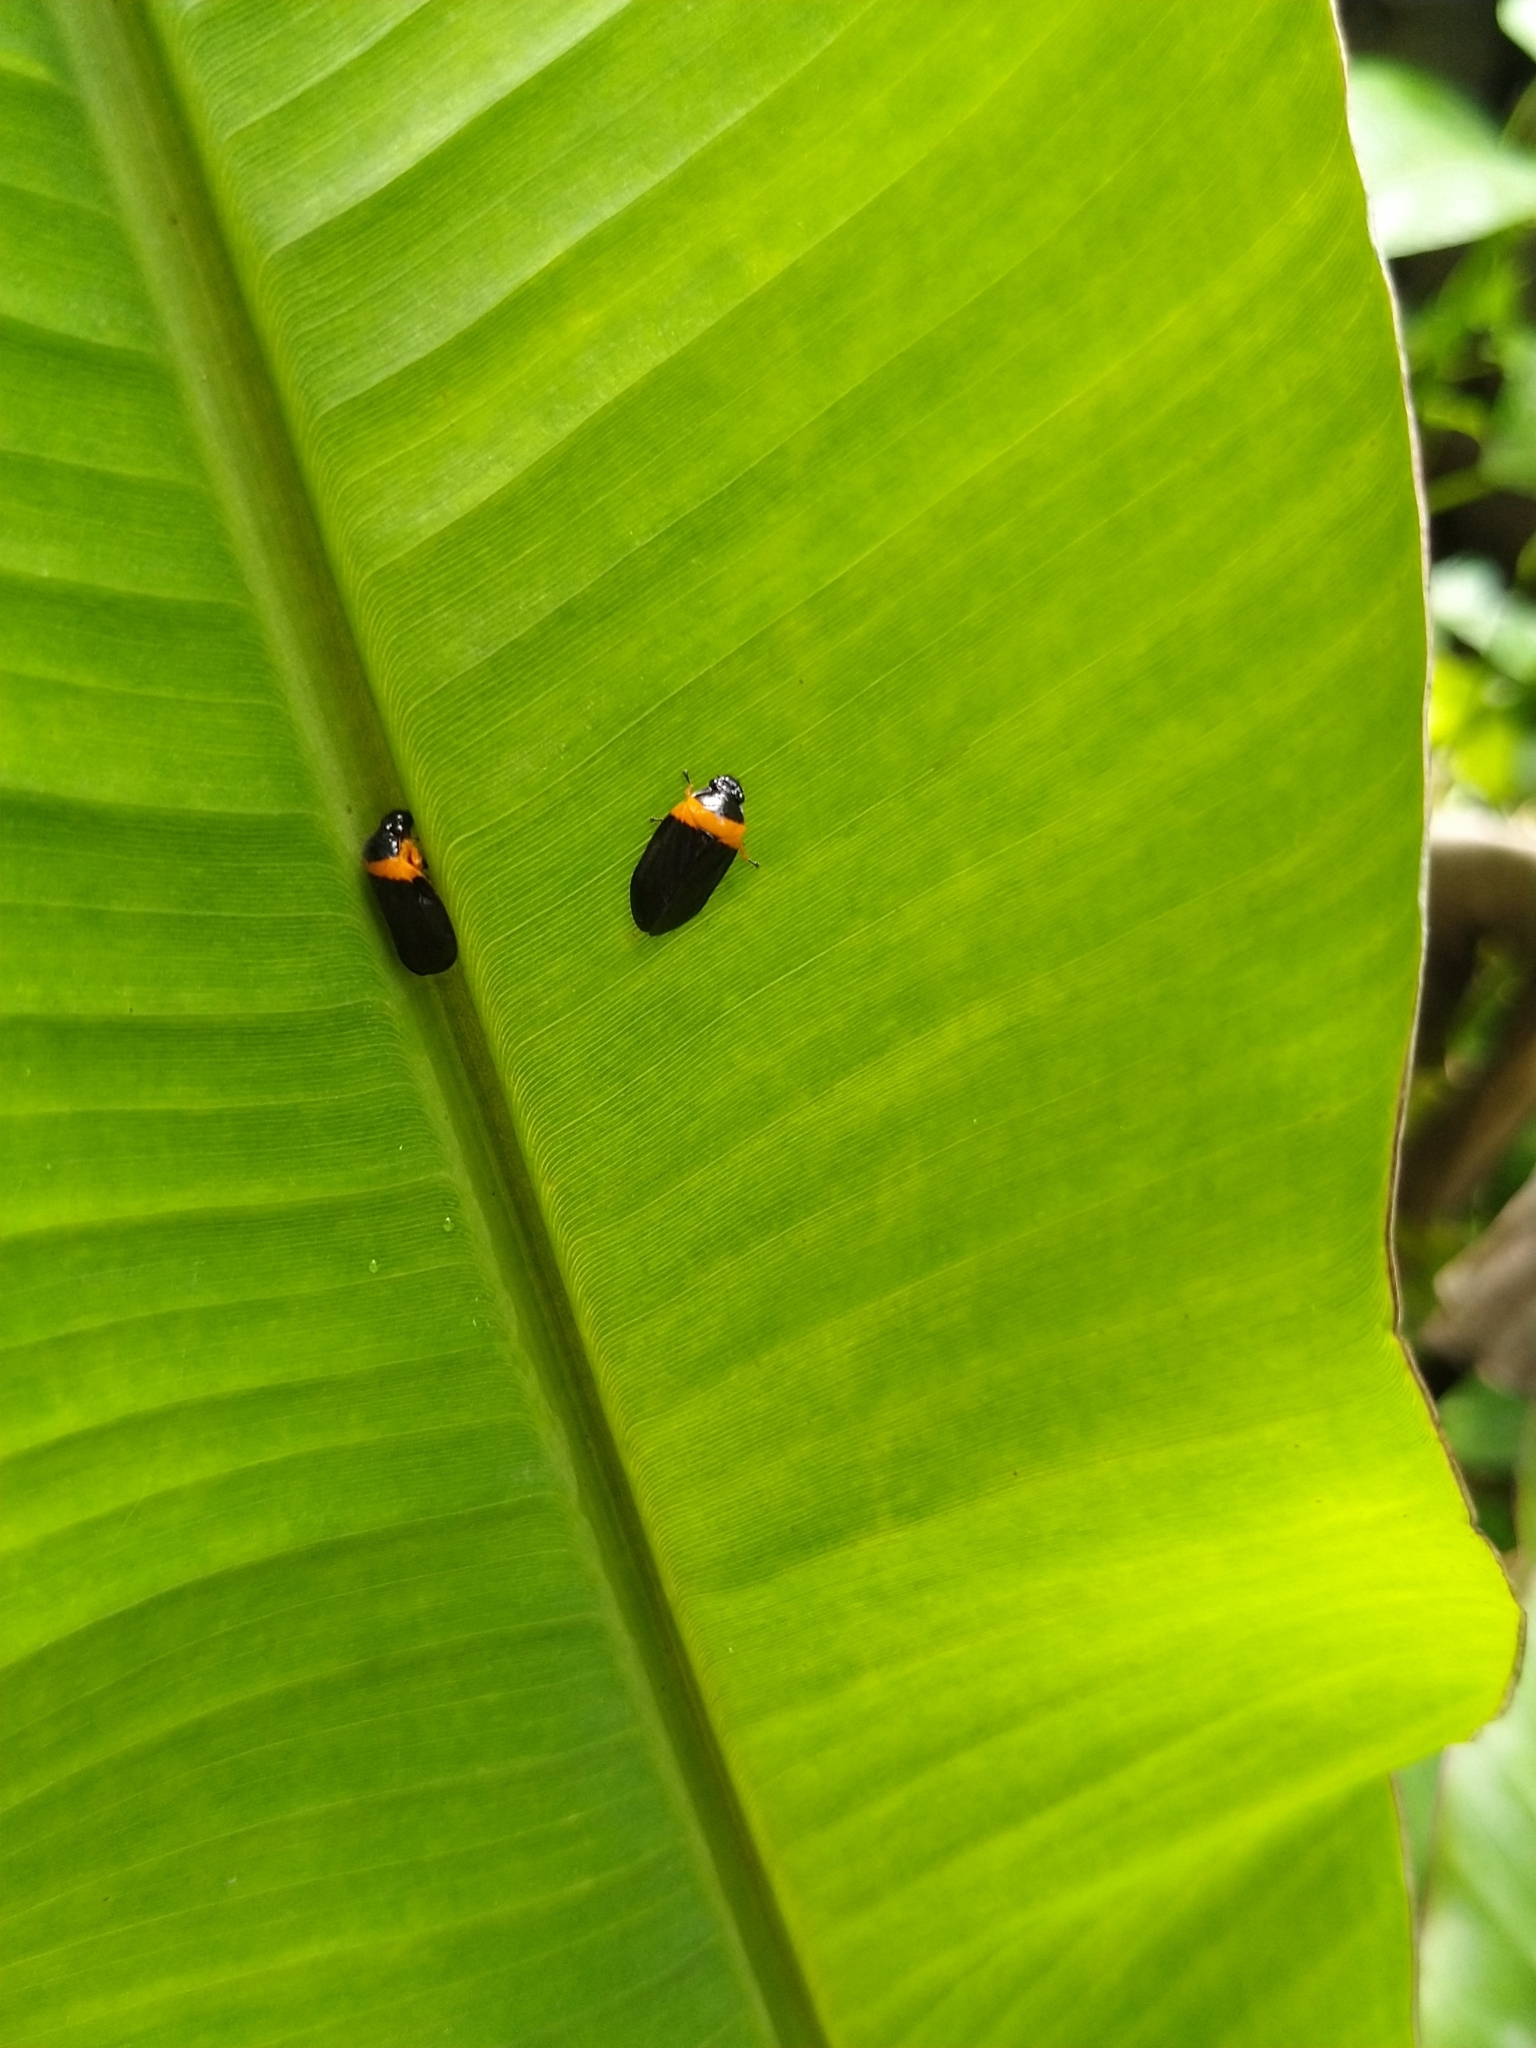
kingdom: Animalia
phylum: Arthropoda
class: Insecta
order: Hemiptera
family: Cercopidae
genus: Phymatostetha
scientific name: Phymatostetha deschampsi
